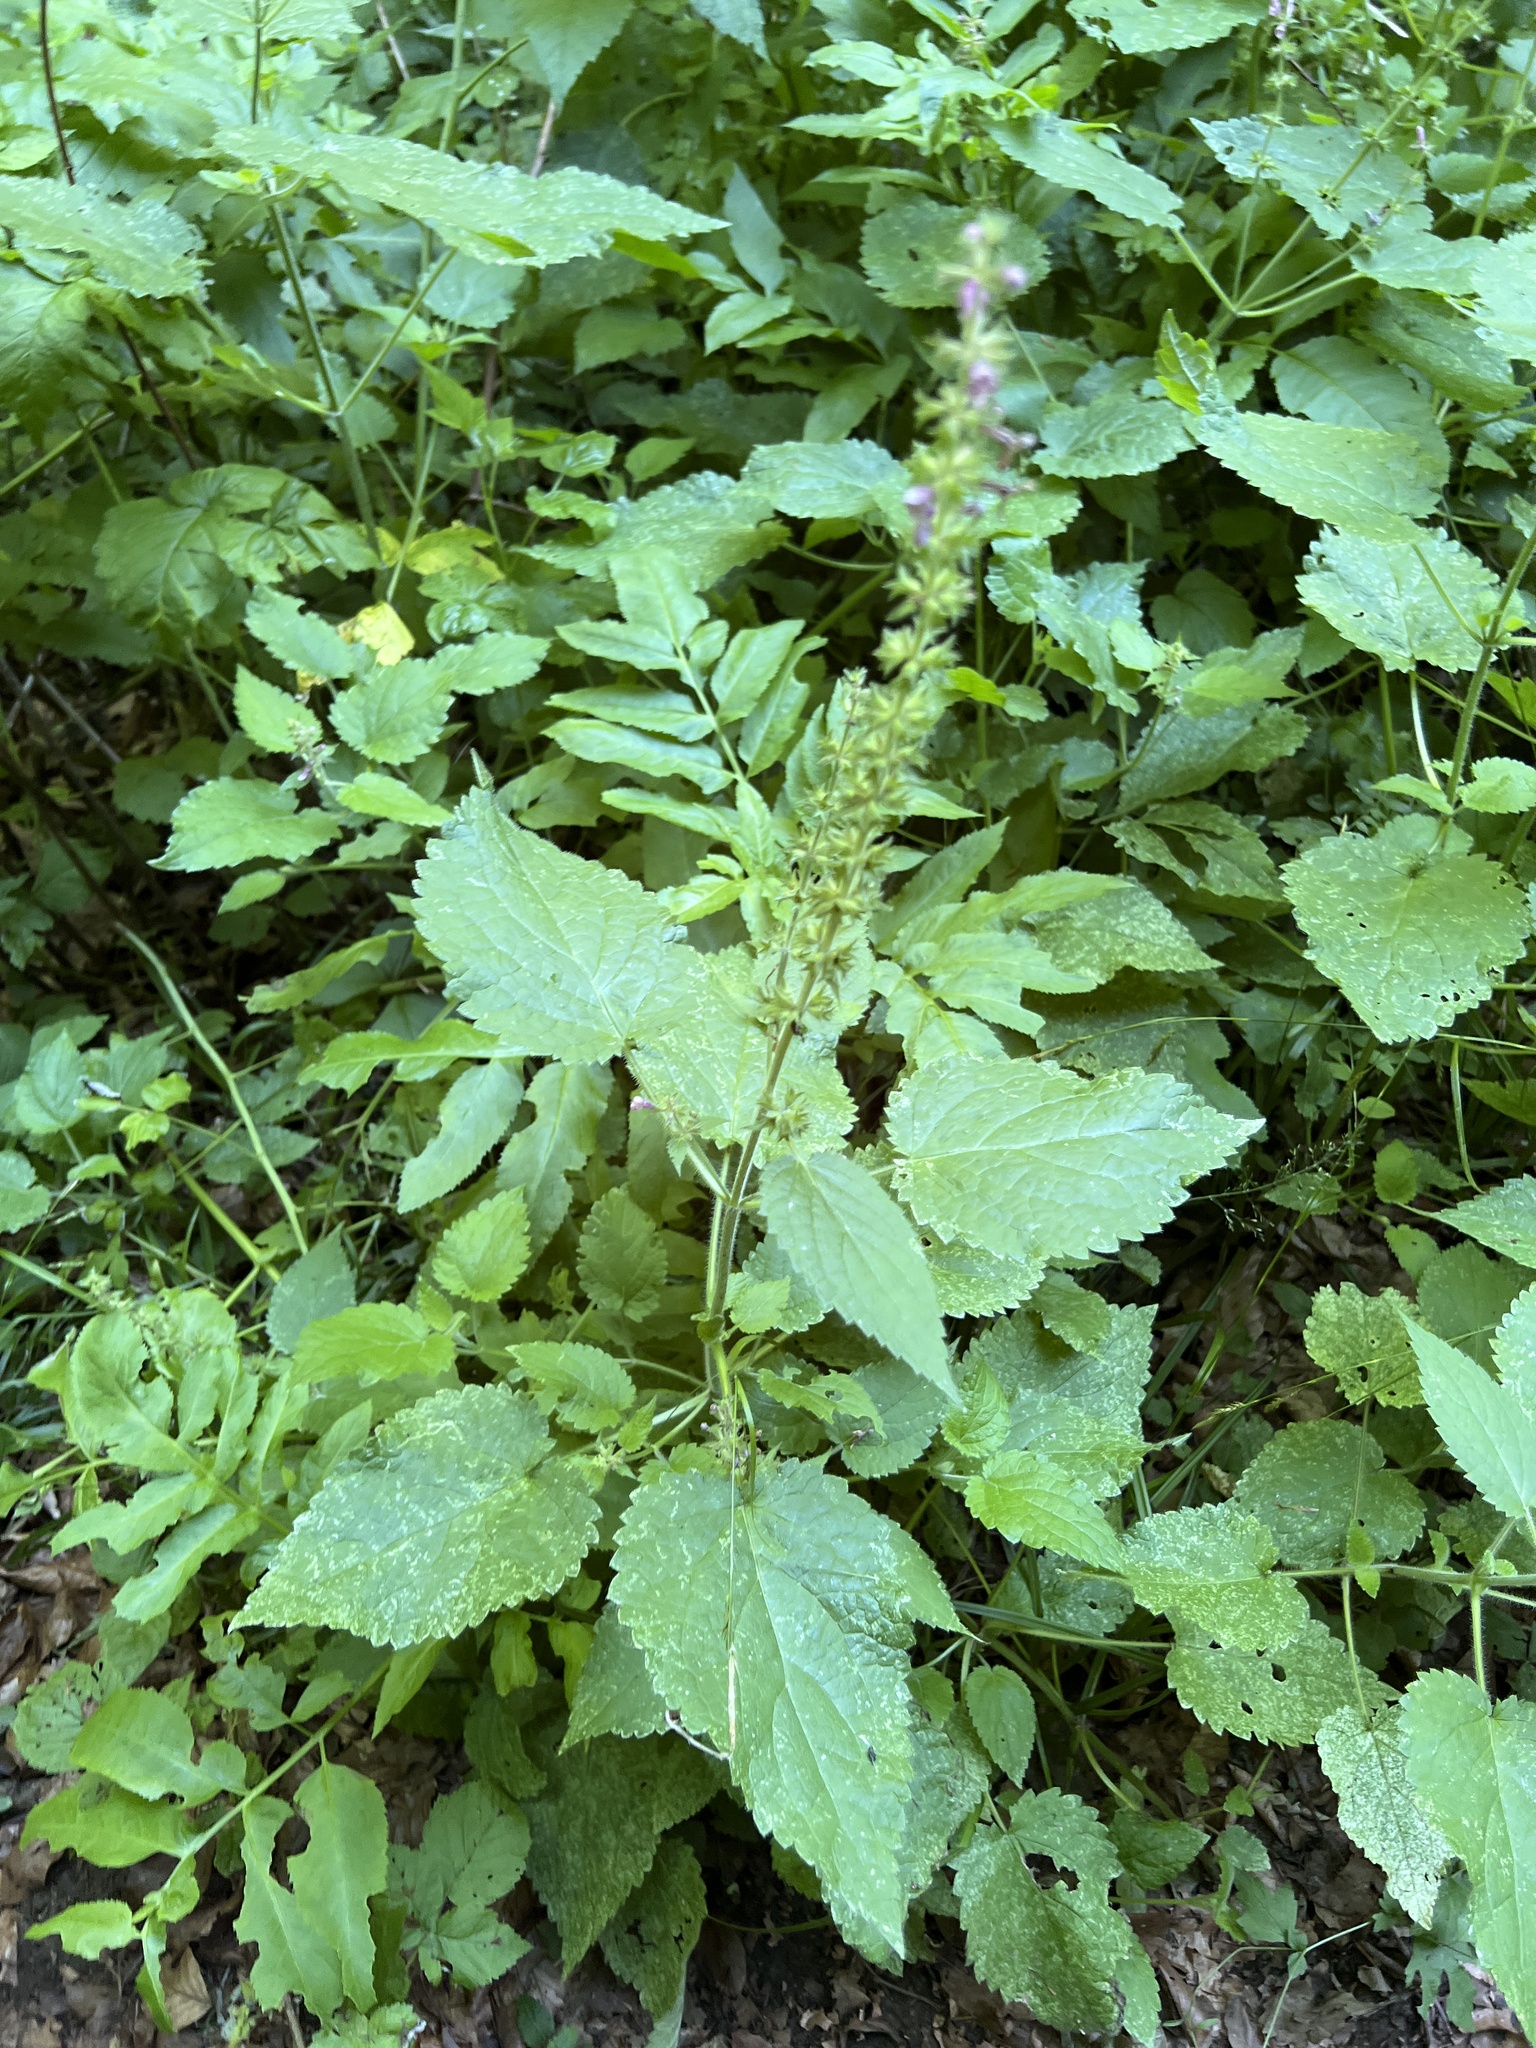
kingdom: Plantae
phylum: Tracheophyta
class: Magnoliopsida
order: Lamiales
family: Lamiaceae
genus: Stachys
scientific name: Stachys sylvatica
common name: Hedge woundwort
